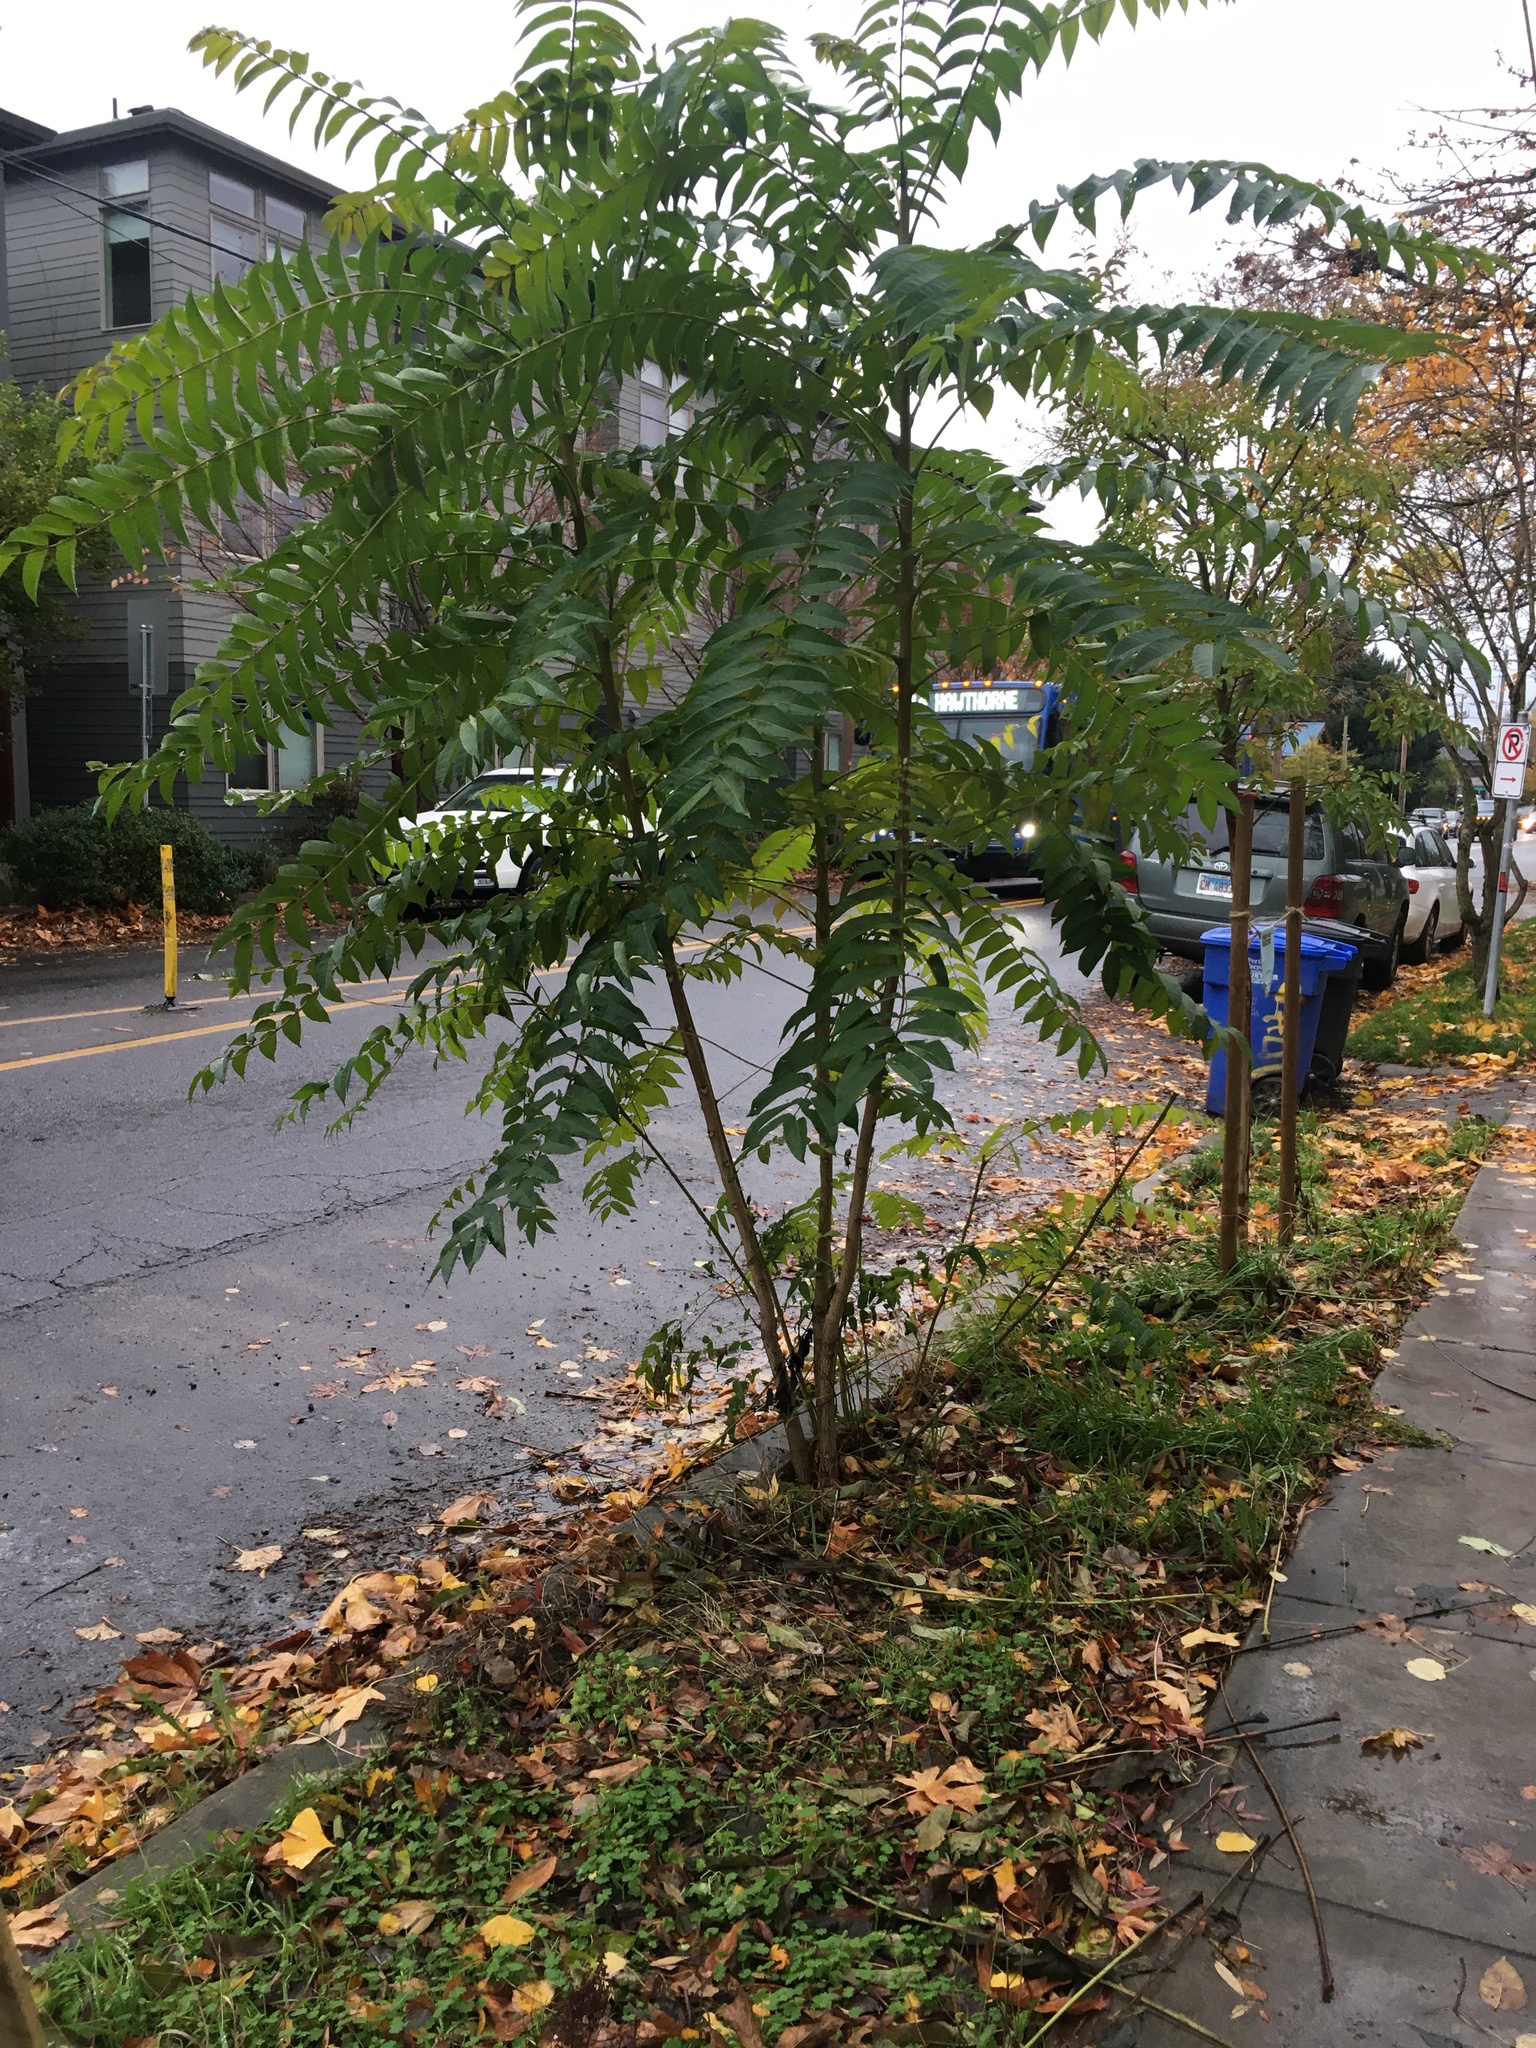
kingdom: Plantae
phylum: Tracheophyta
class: Magnoliopsida
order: Sapindales
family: Simaroubaceae
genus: Ailanthus
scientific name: Ailanthus altissima
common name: Tree-of-heaven
